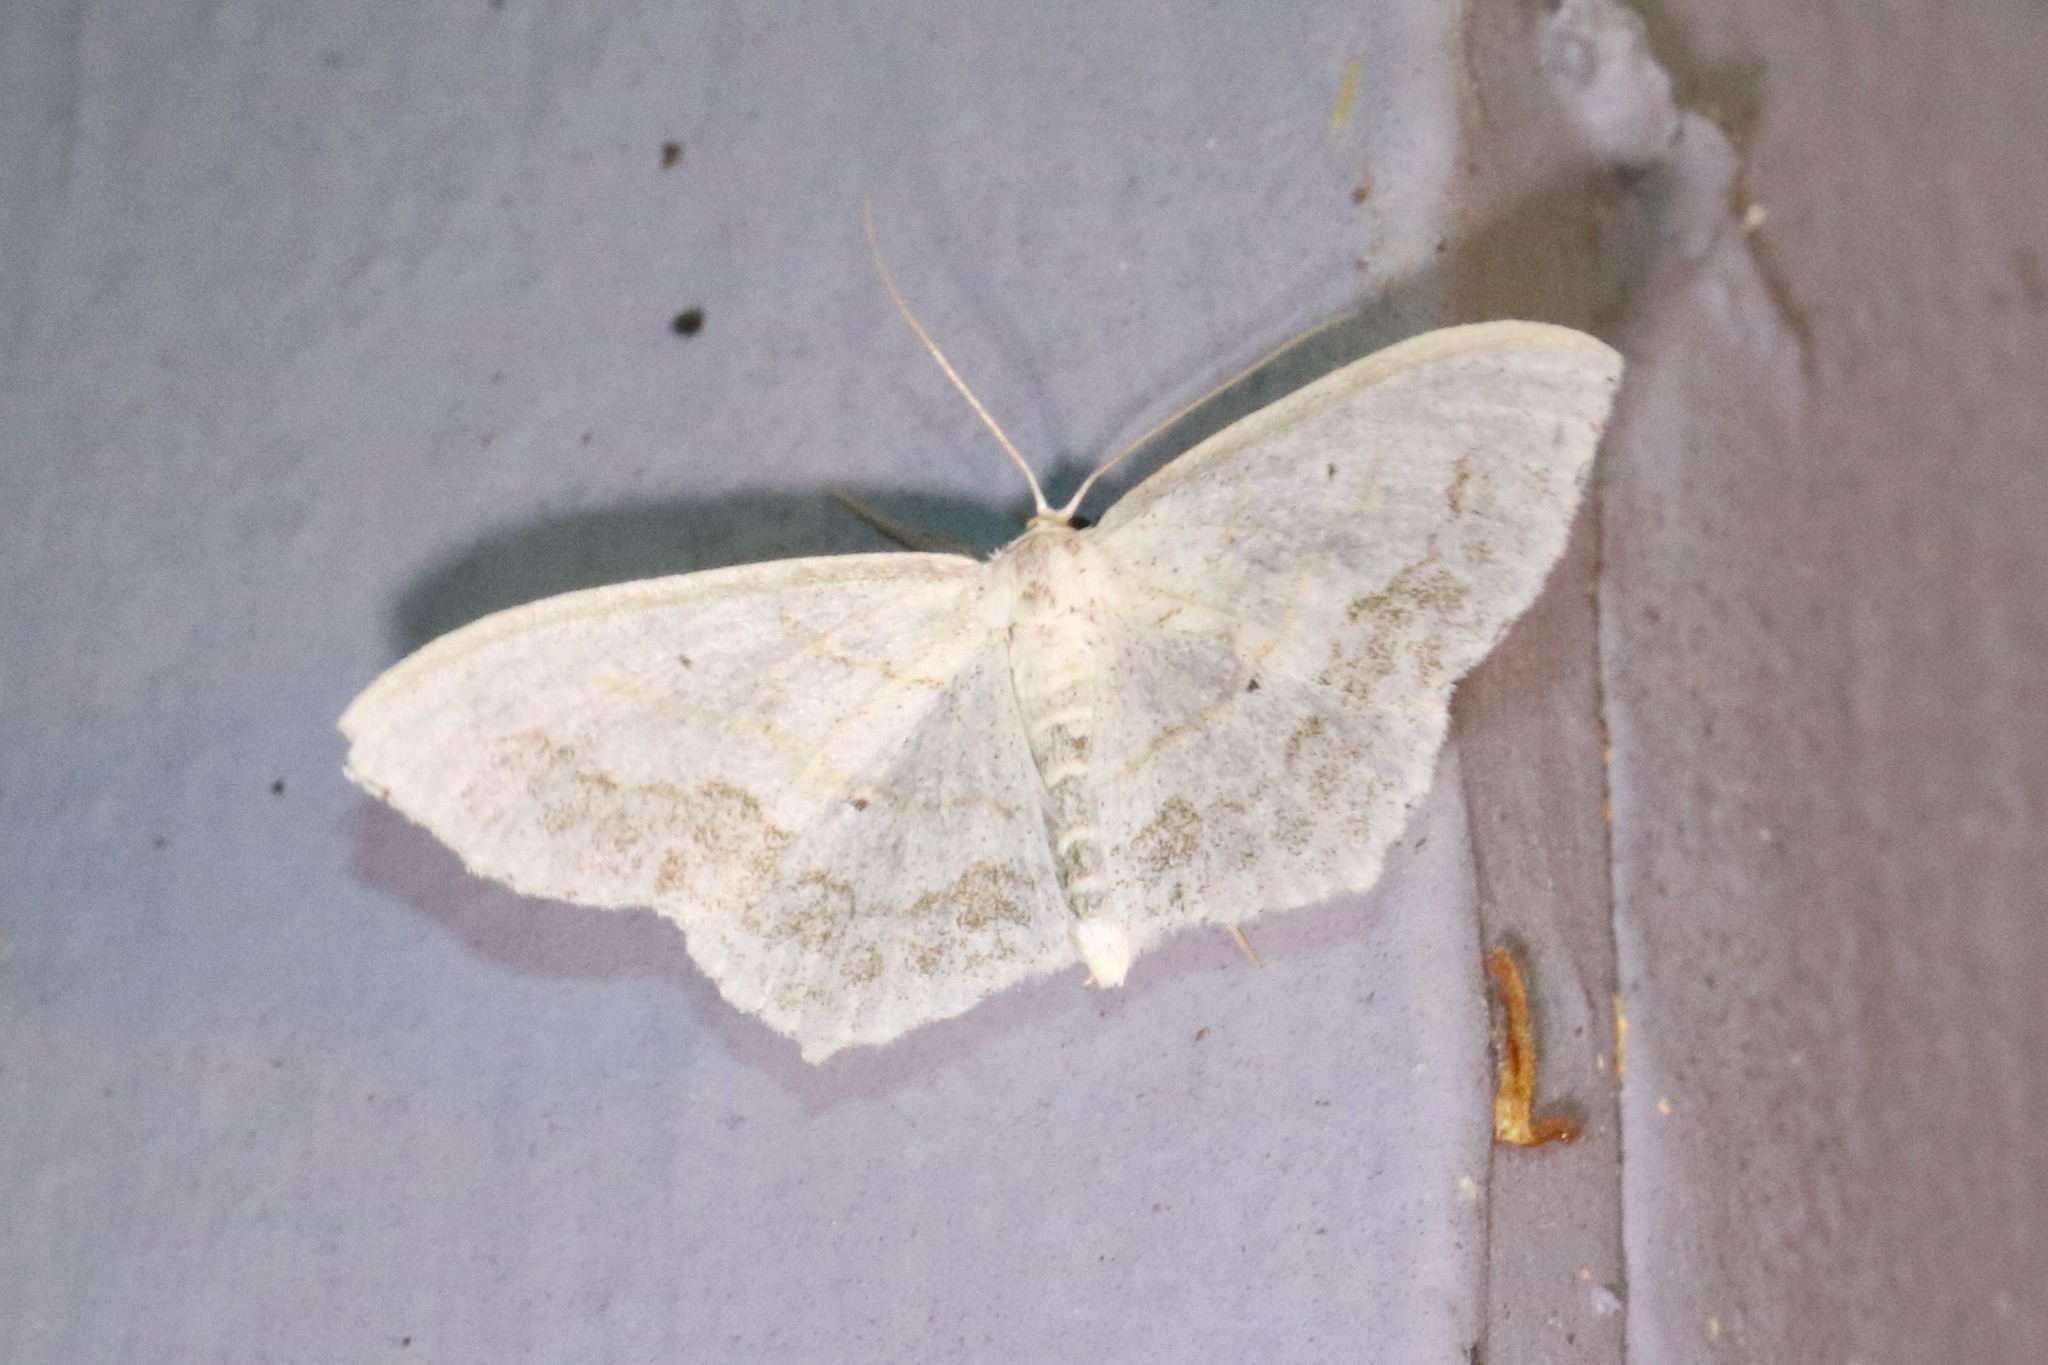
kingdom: Animalia
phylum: Arthropoda
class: Insecta
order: Lepidoptera
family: Geometridae
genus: Scopula
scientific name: Scopula limboundata
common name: Large lace border
